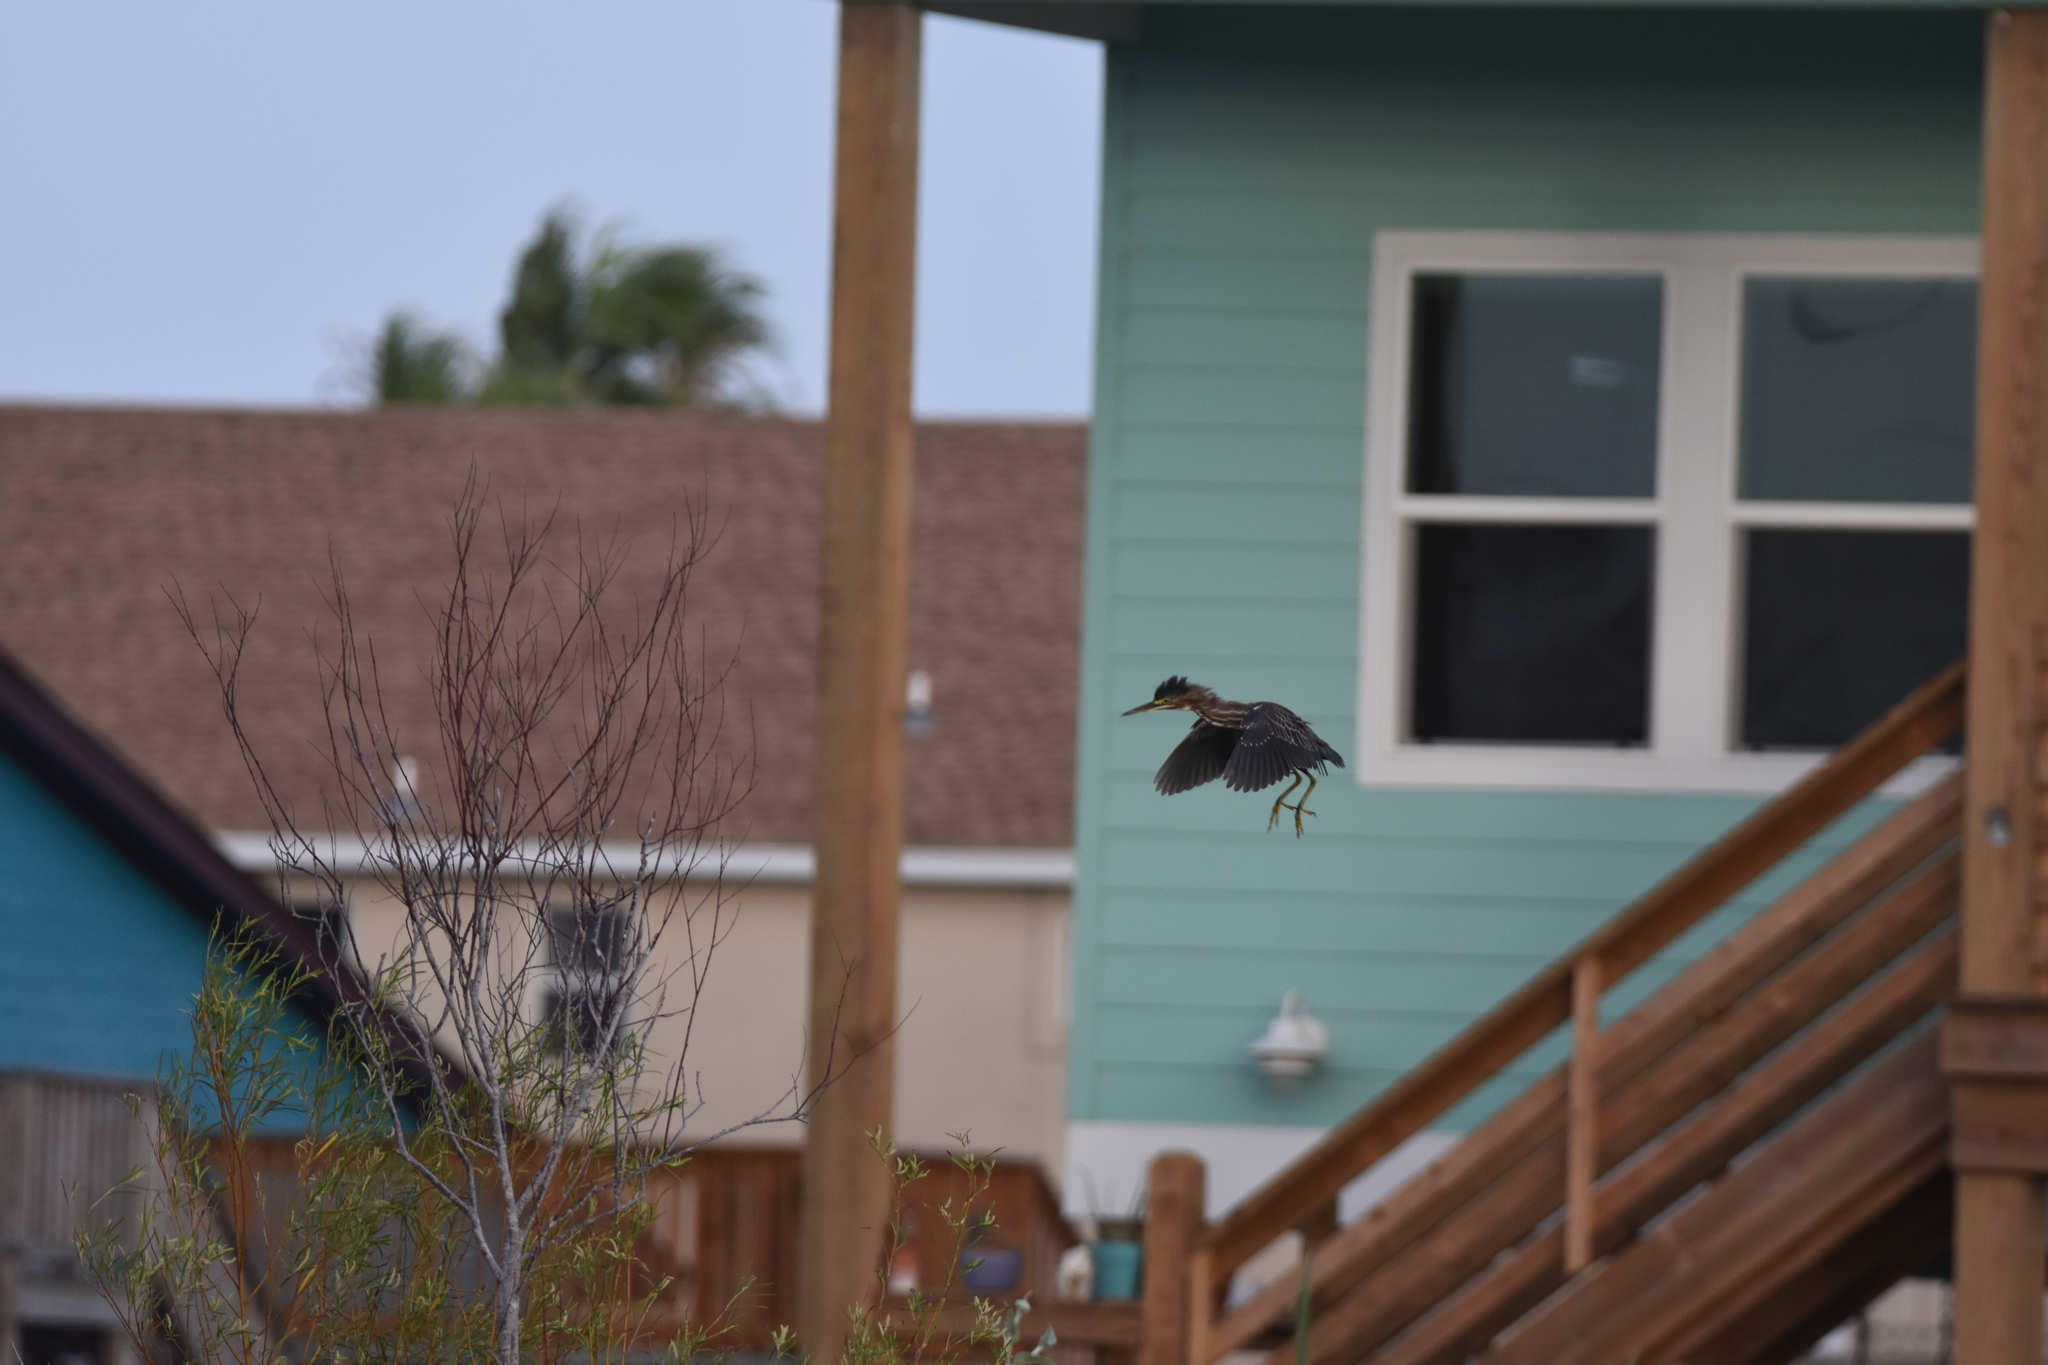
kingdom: Animalia
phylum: Chordata
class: Aves
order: Pelecaniformes
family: Ardeidae
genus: Butorides
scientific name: Butorides virescens
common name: Green heron
